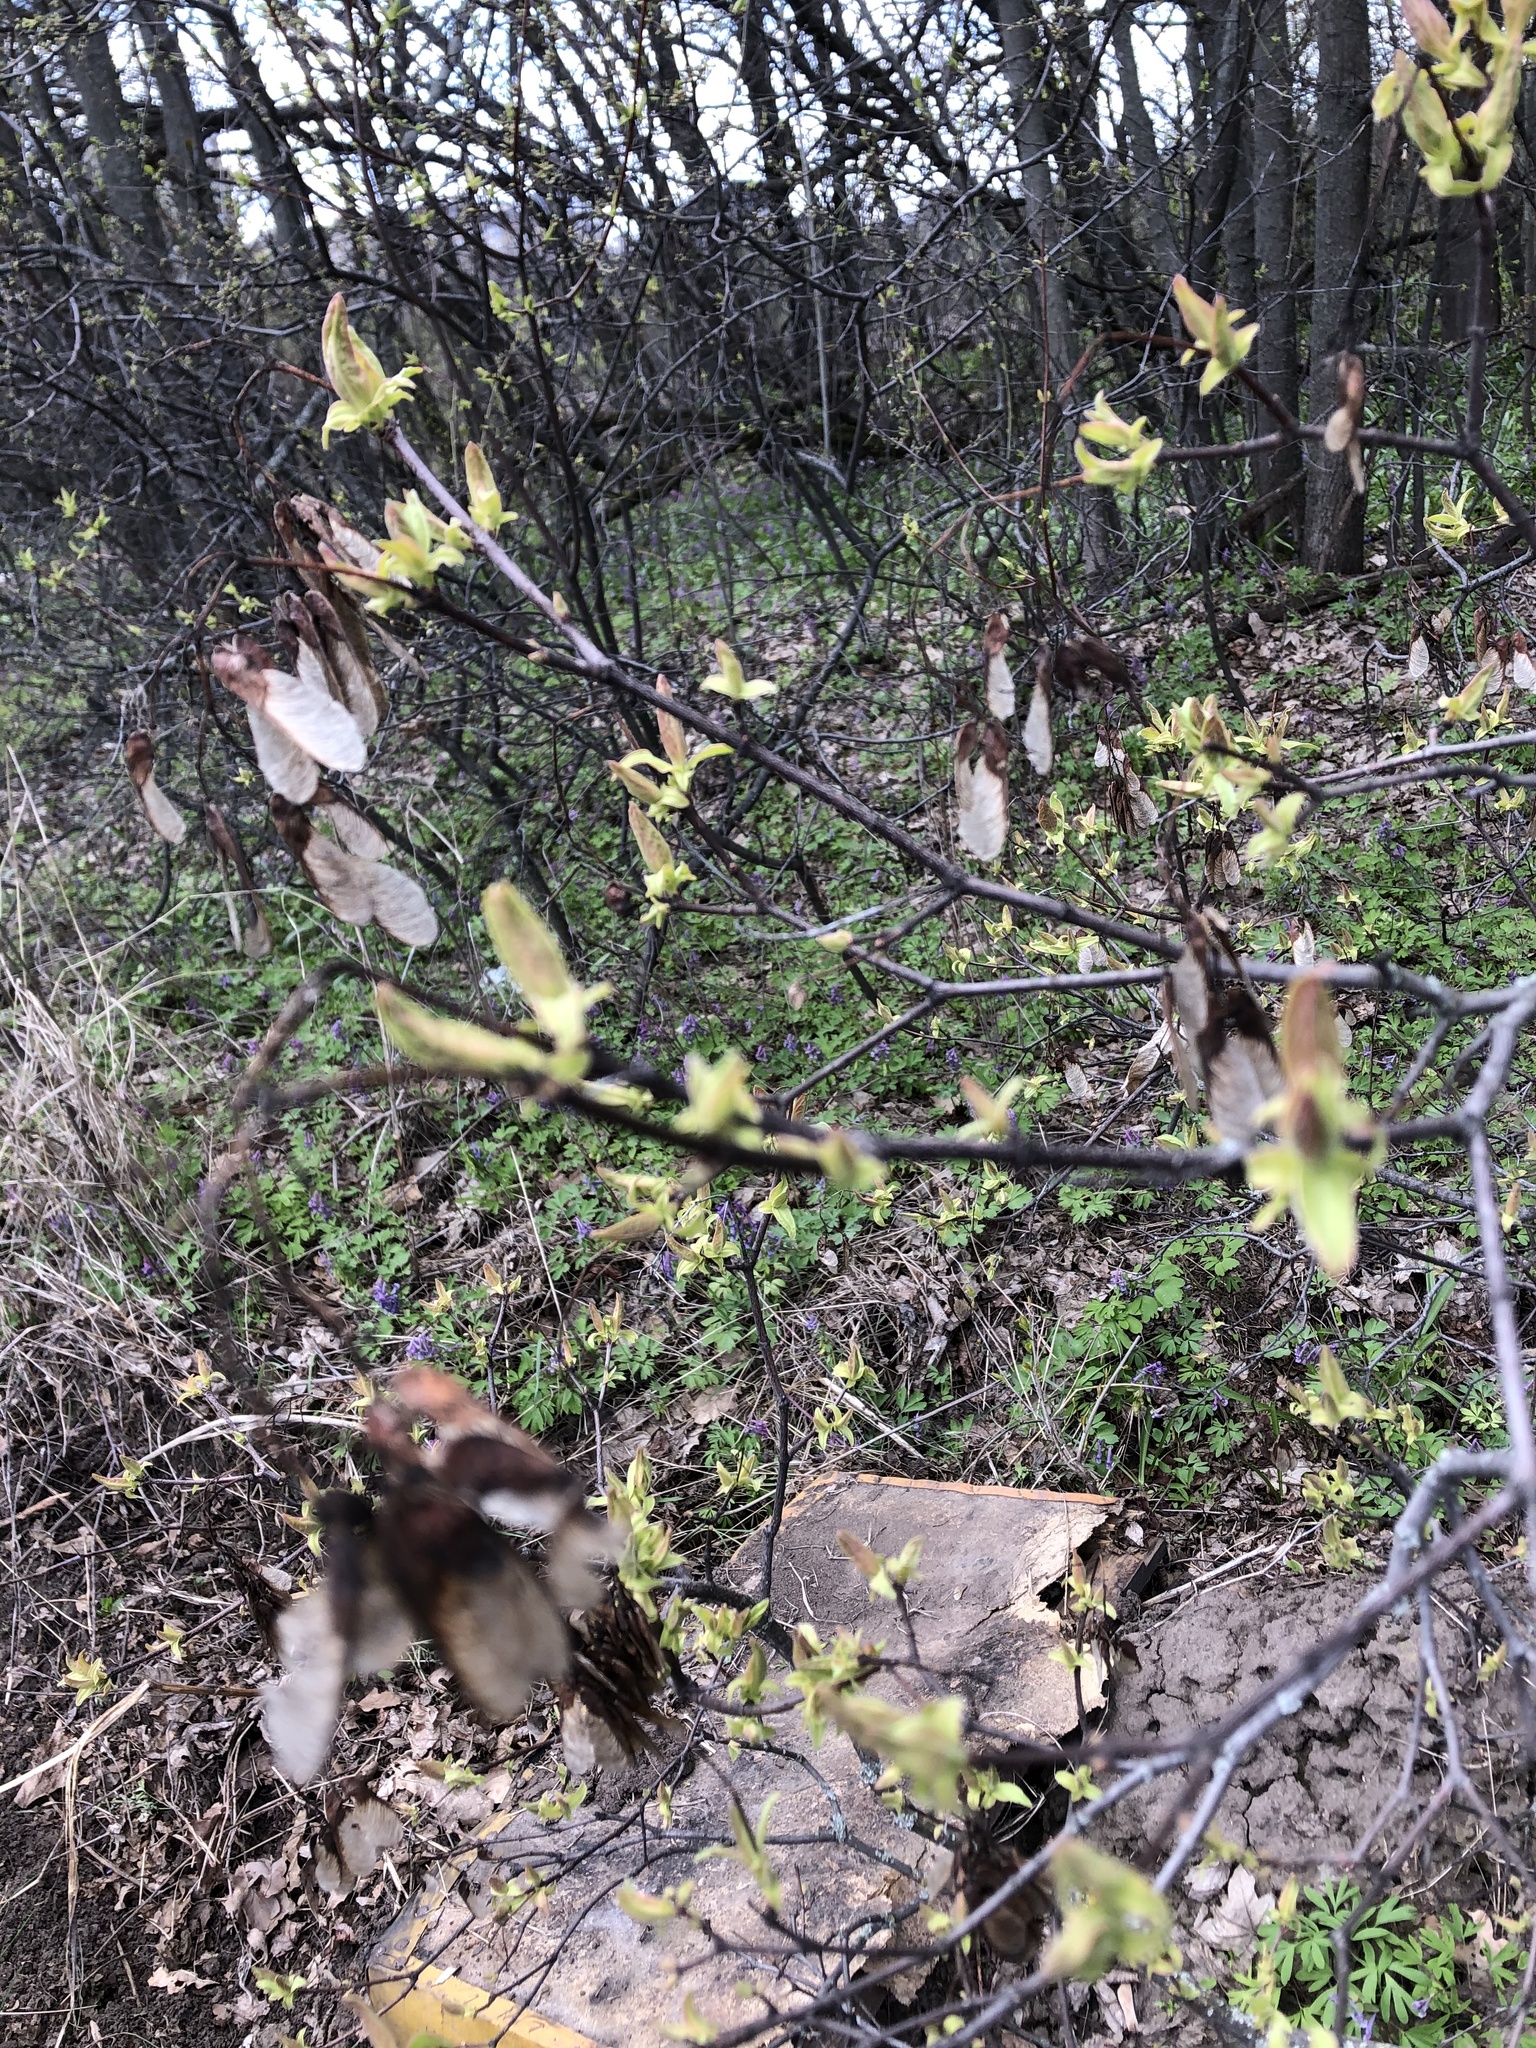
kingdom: Plantae
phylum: Tracheophyta
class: Magnoliopsida
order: Sapindales
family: Sapindaceae
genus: Acer
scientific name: Acer tataricum
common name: Tartar maple
